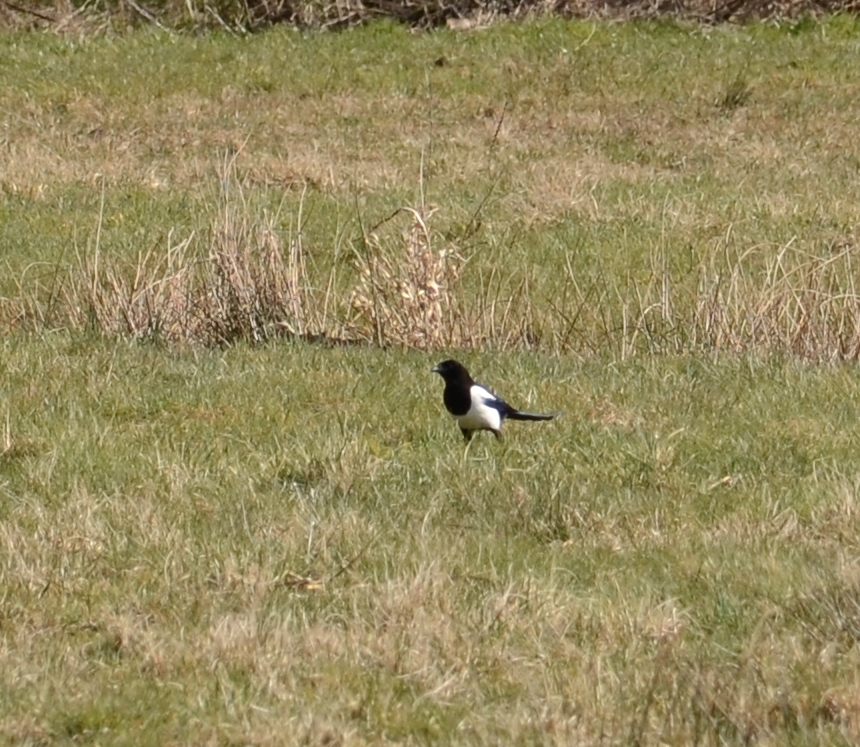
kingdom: Animalia
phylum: Chordata
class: Aves
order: Passeriformes
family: Corvidae
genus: Pica
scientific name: Pica pica
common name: Eurasian magpie
